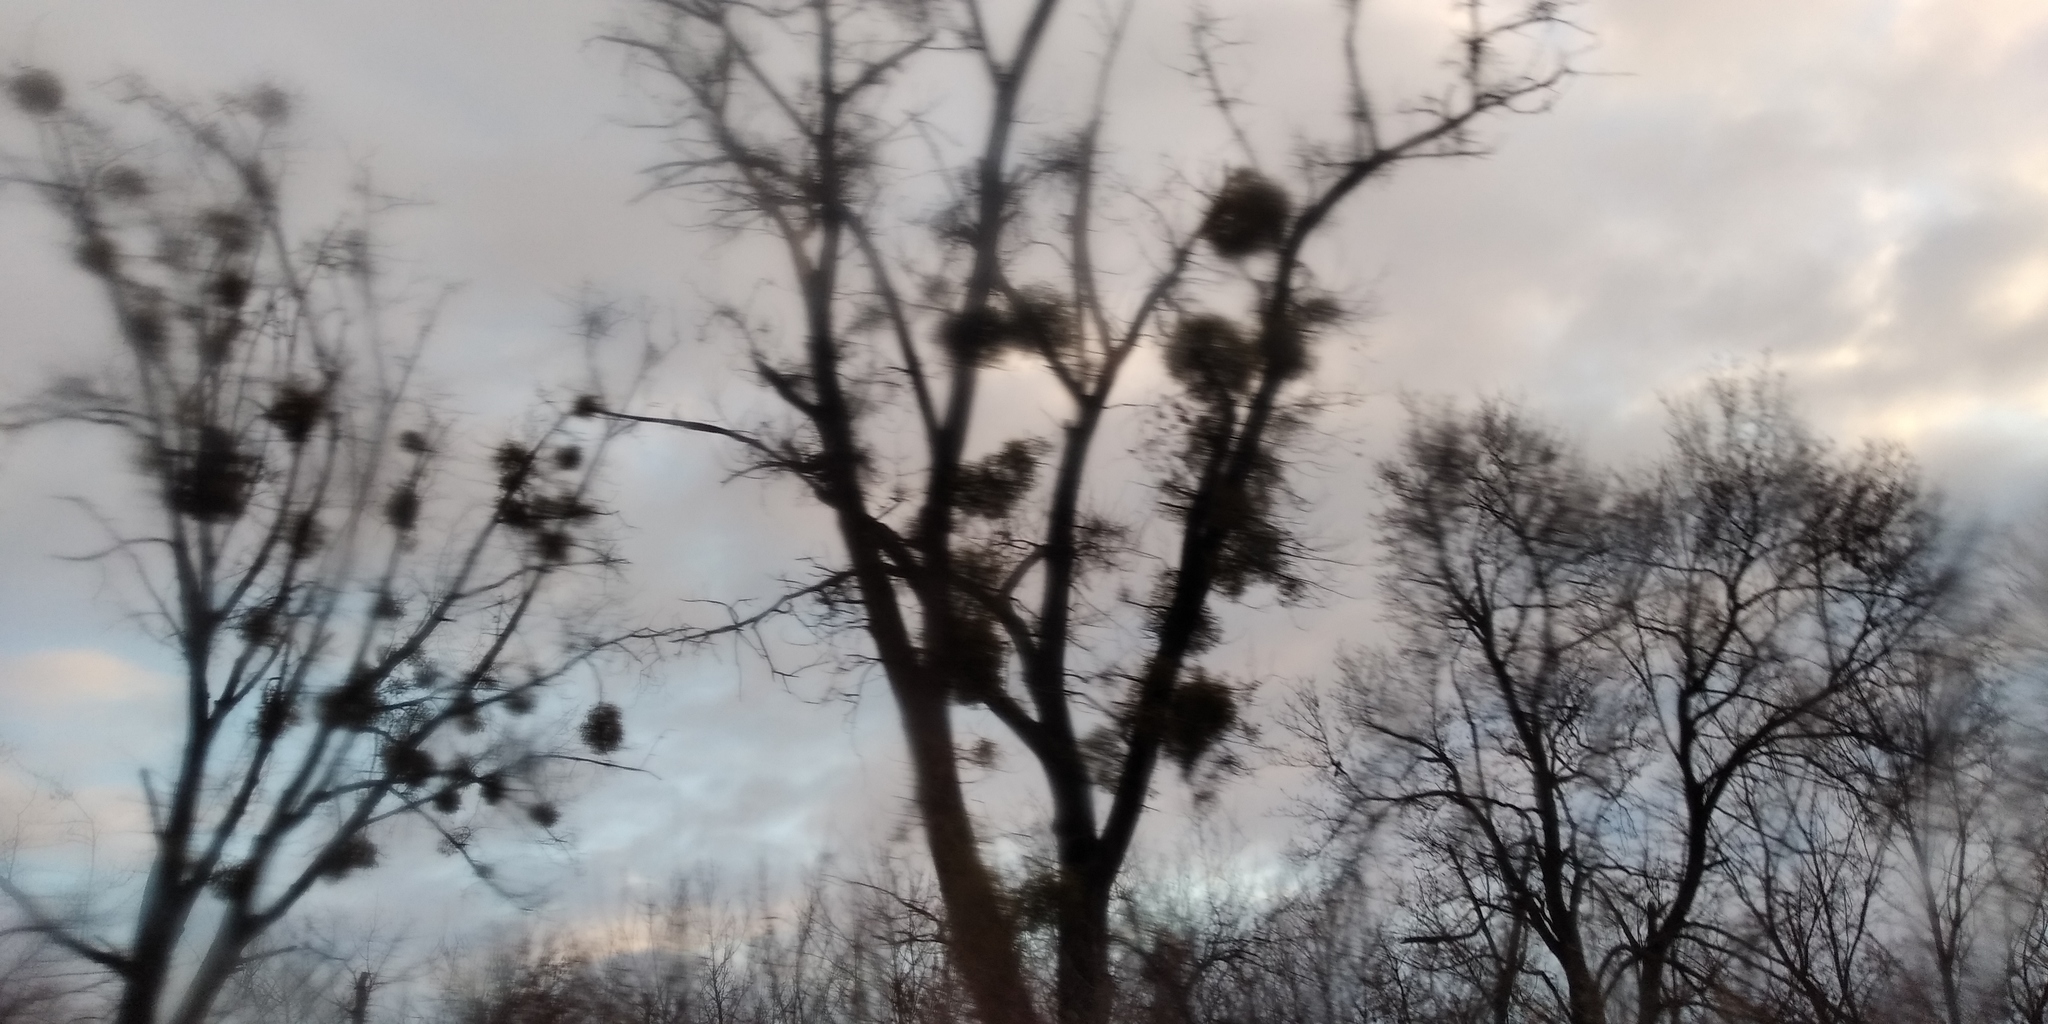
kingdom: Plantae
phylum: Tracheophyta
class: Magnoliopsida
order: Santalales
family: Viscaceae
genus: Viscum
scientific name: Viscum album
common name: Mistletoe
